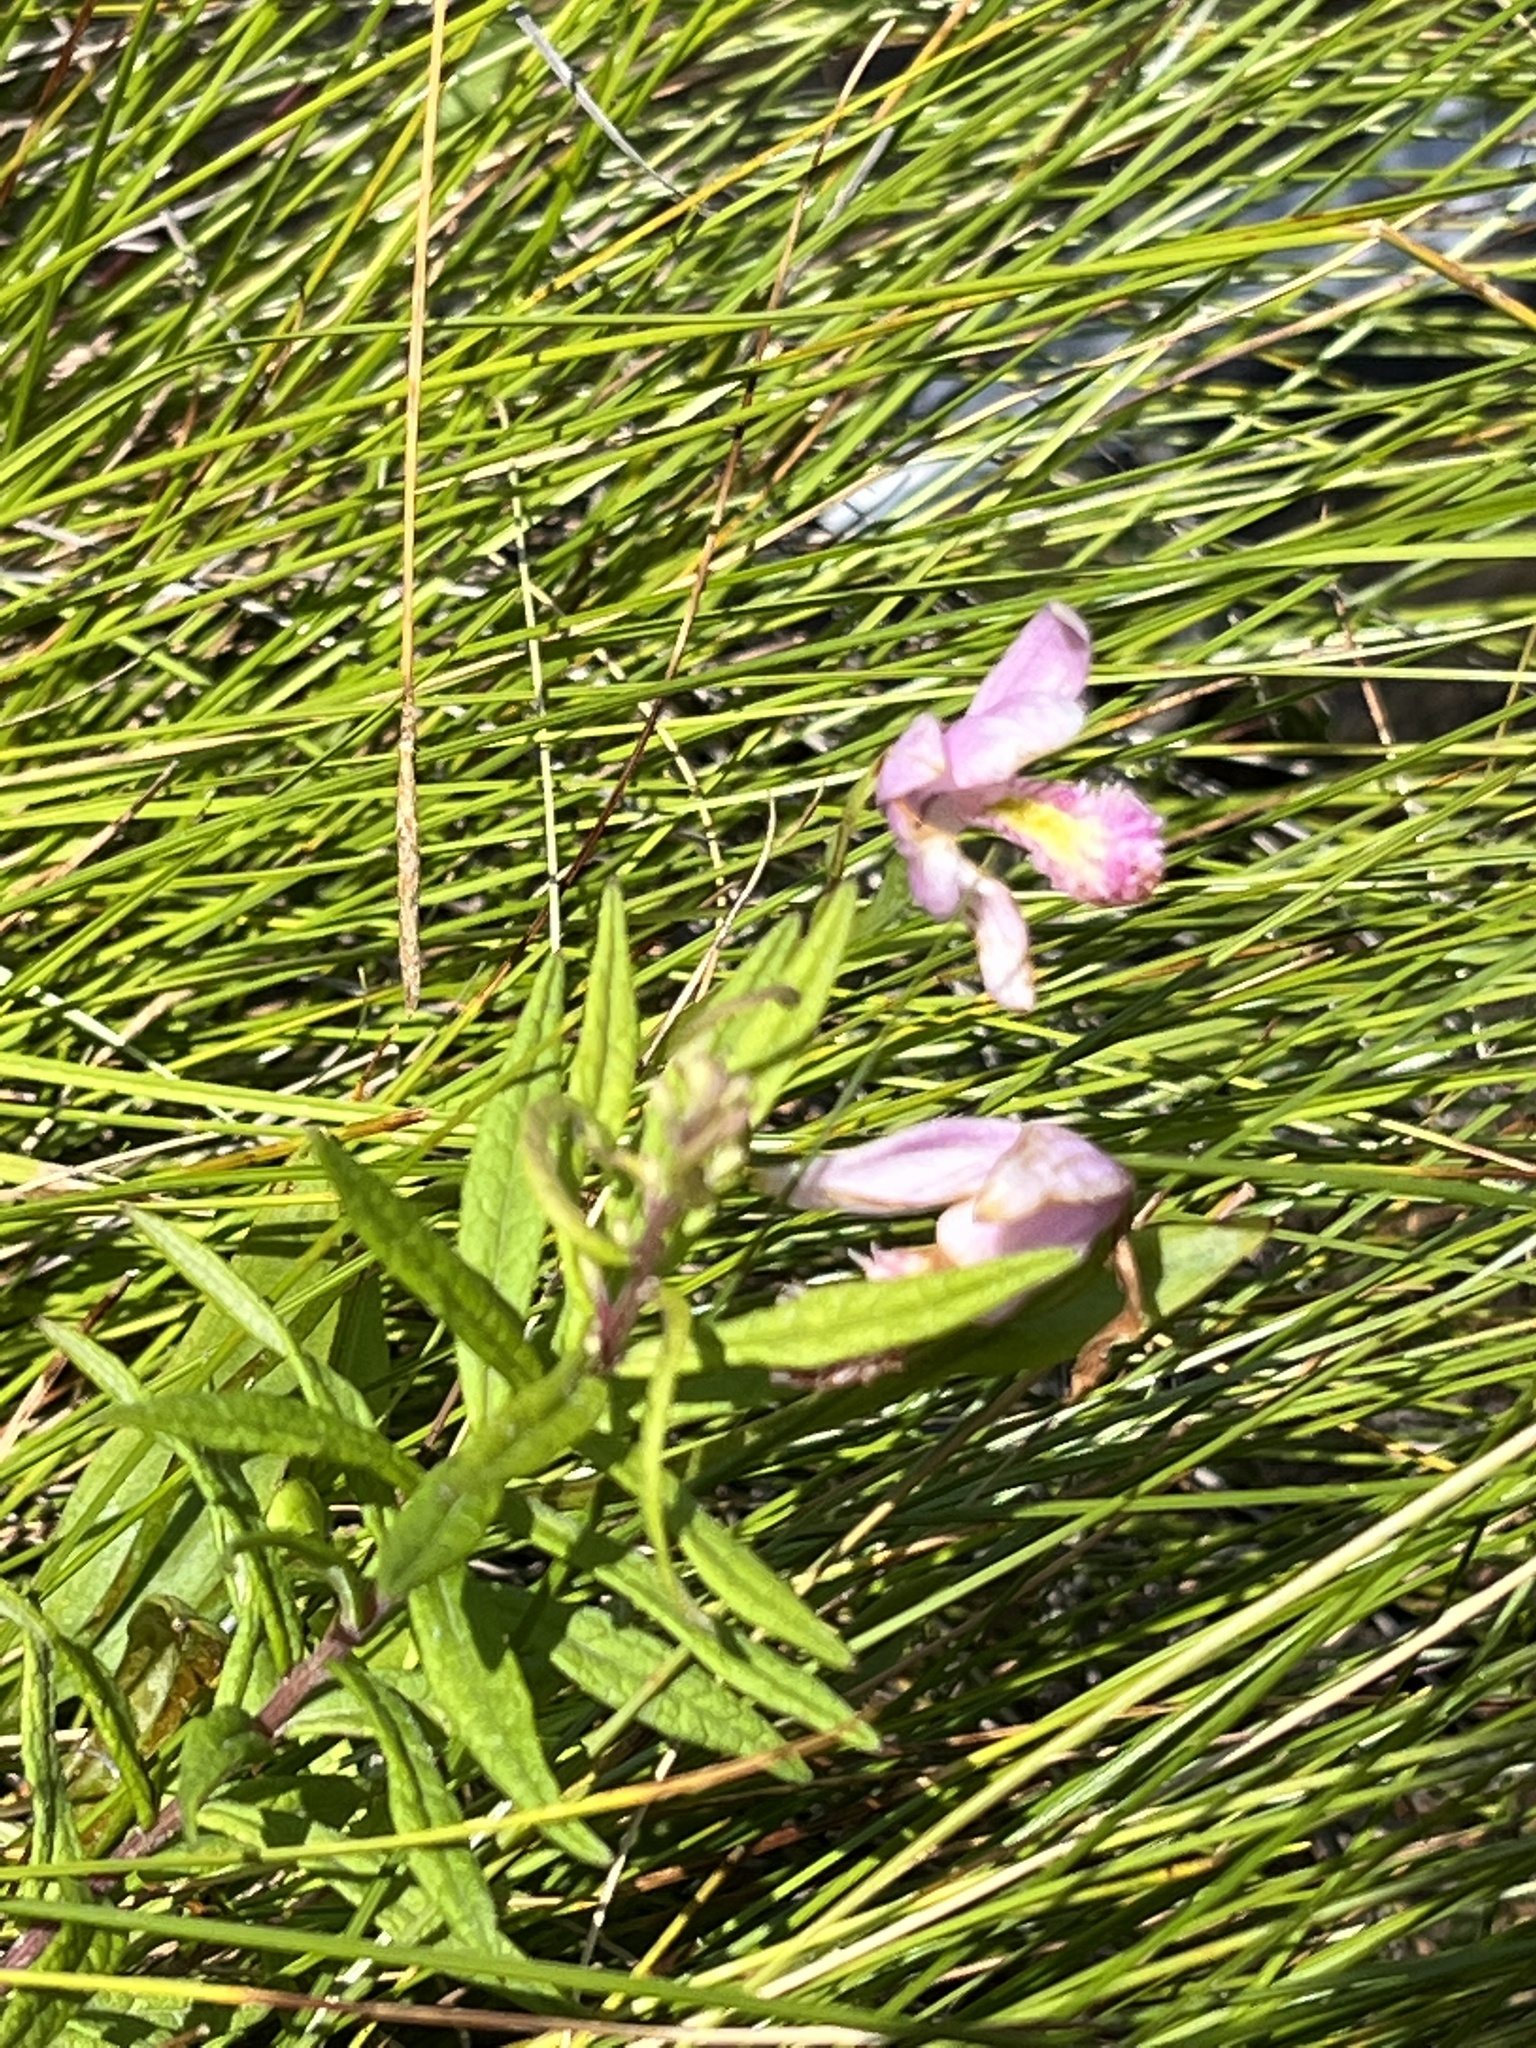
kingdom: Plantae
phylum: Tracheophyta
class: Liliopsida
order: Asparagales
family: Orchidaceae
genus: Pogonia
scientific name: Pogonia ophioglossoides
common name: Rose pogonia
